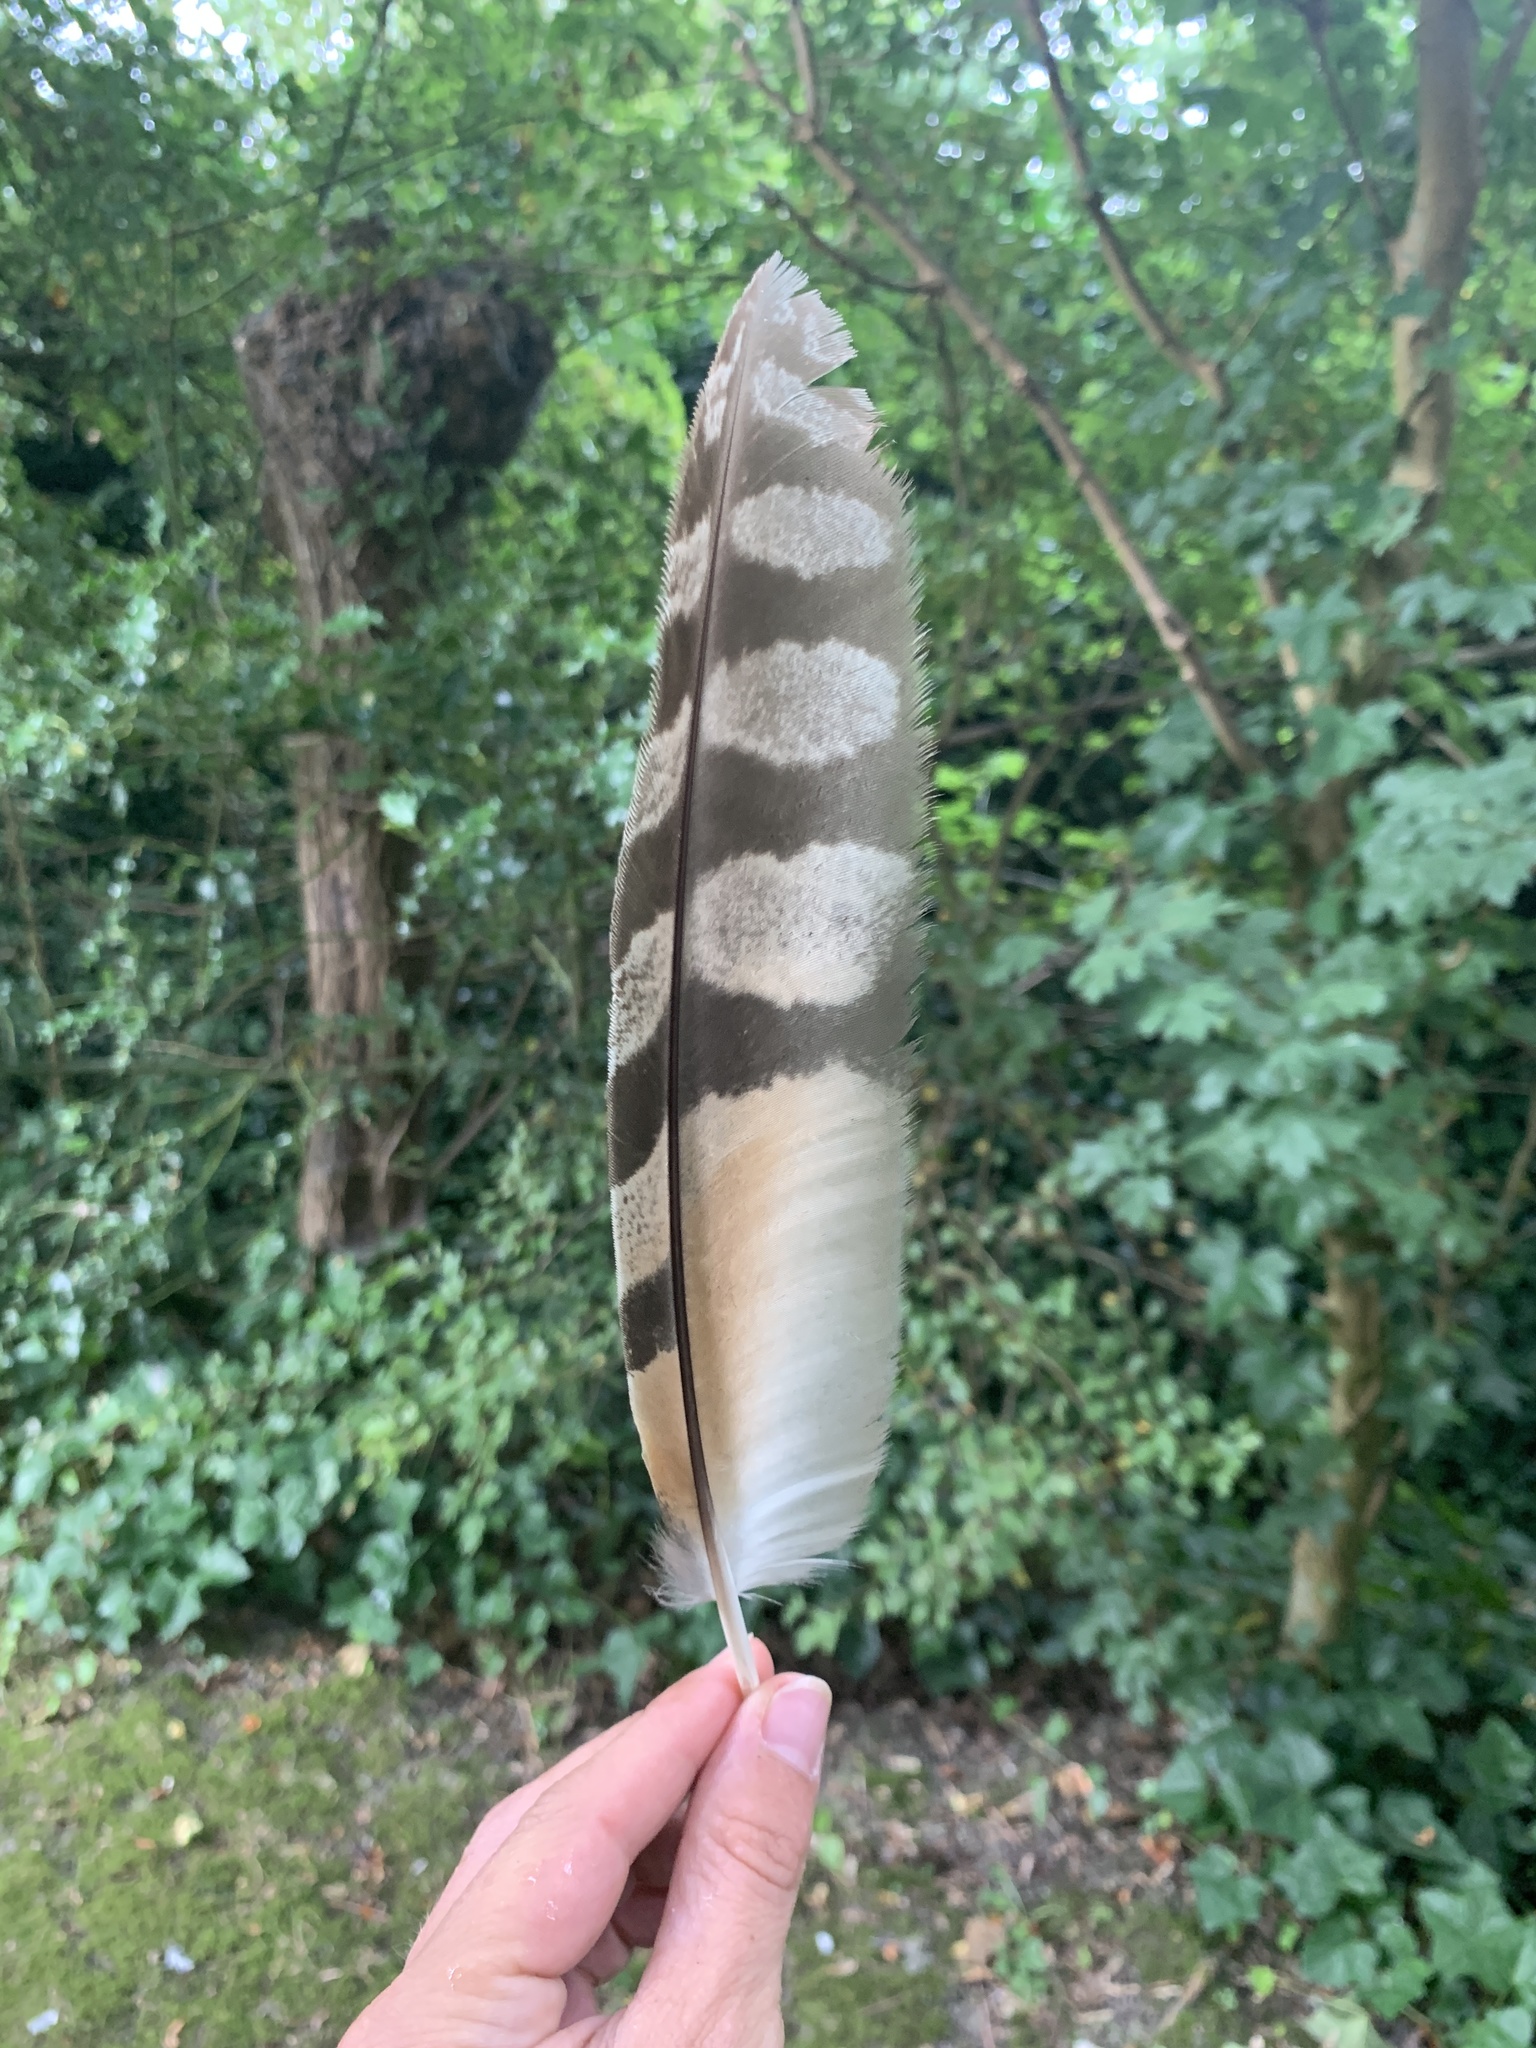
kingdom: Animalia
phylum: Chordata
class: Aves
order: Strigiformes
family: Strigidae
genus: Asio
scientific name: Asio otus
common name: Long-eared owl
